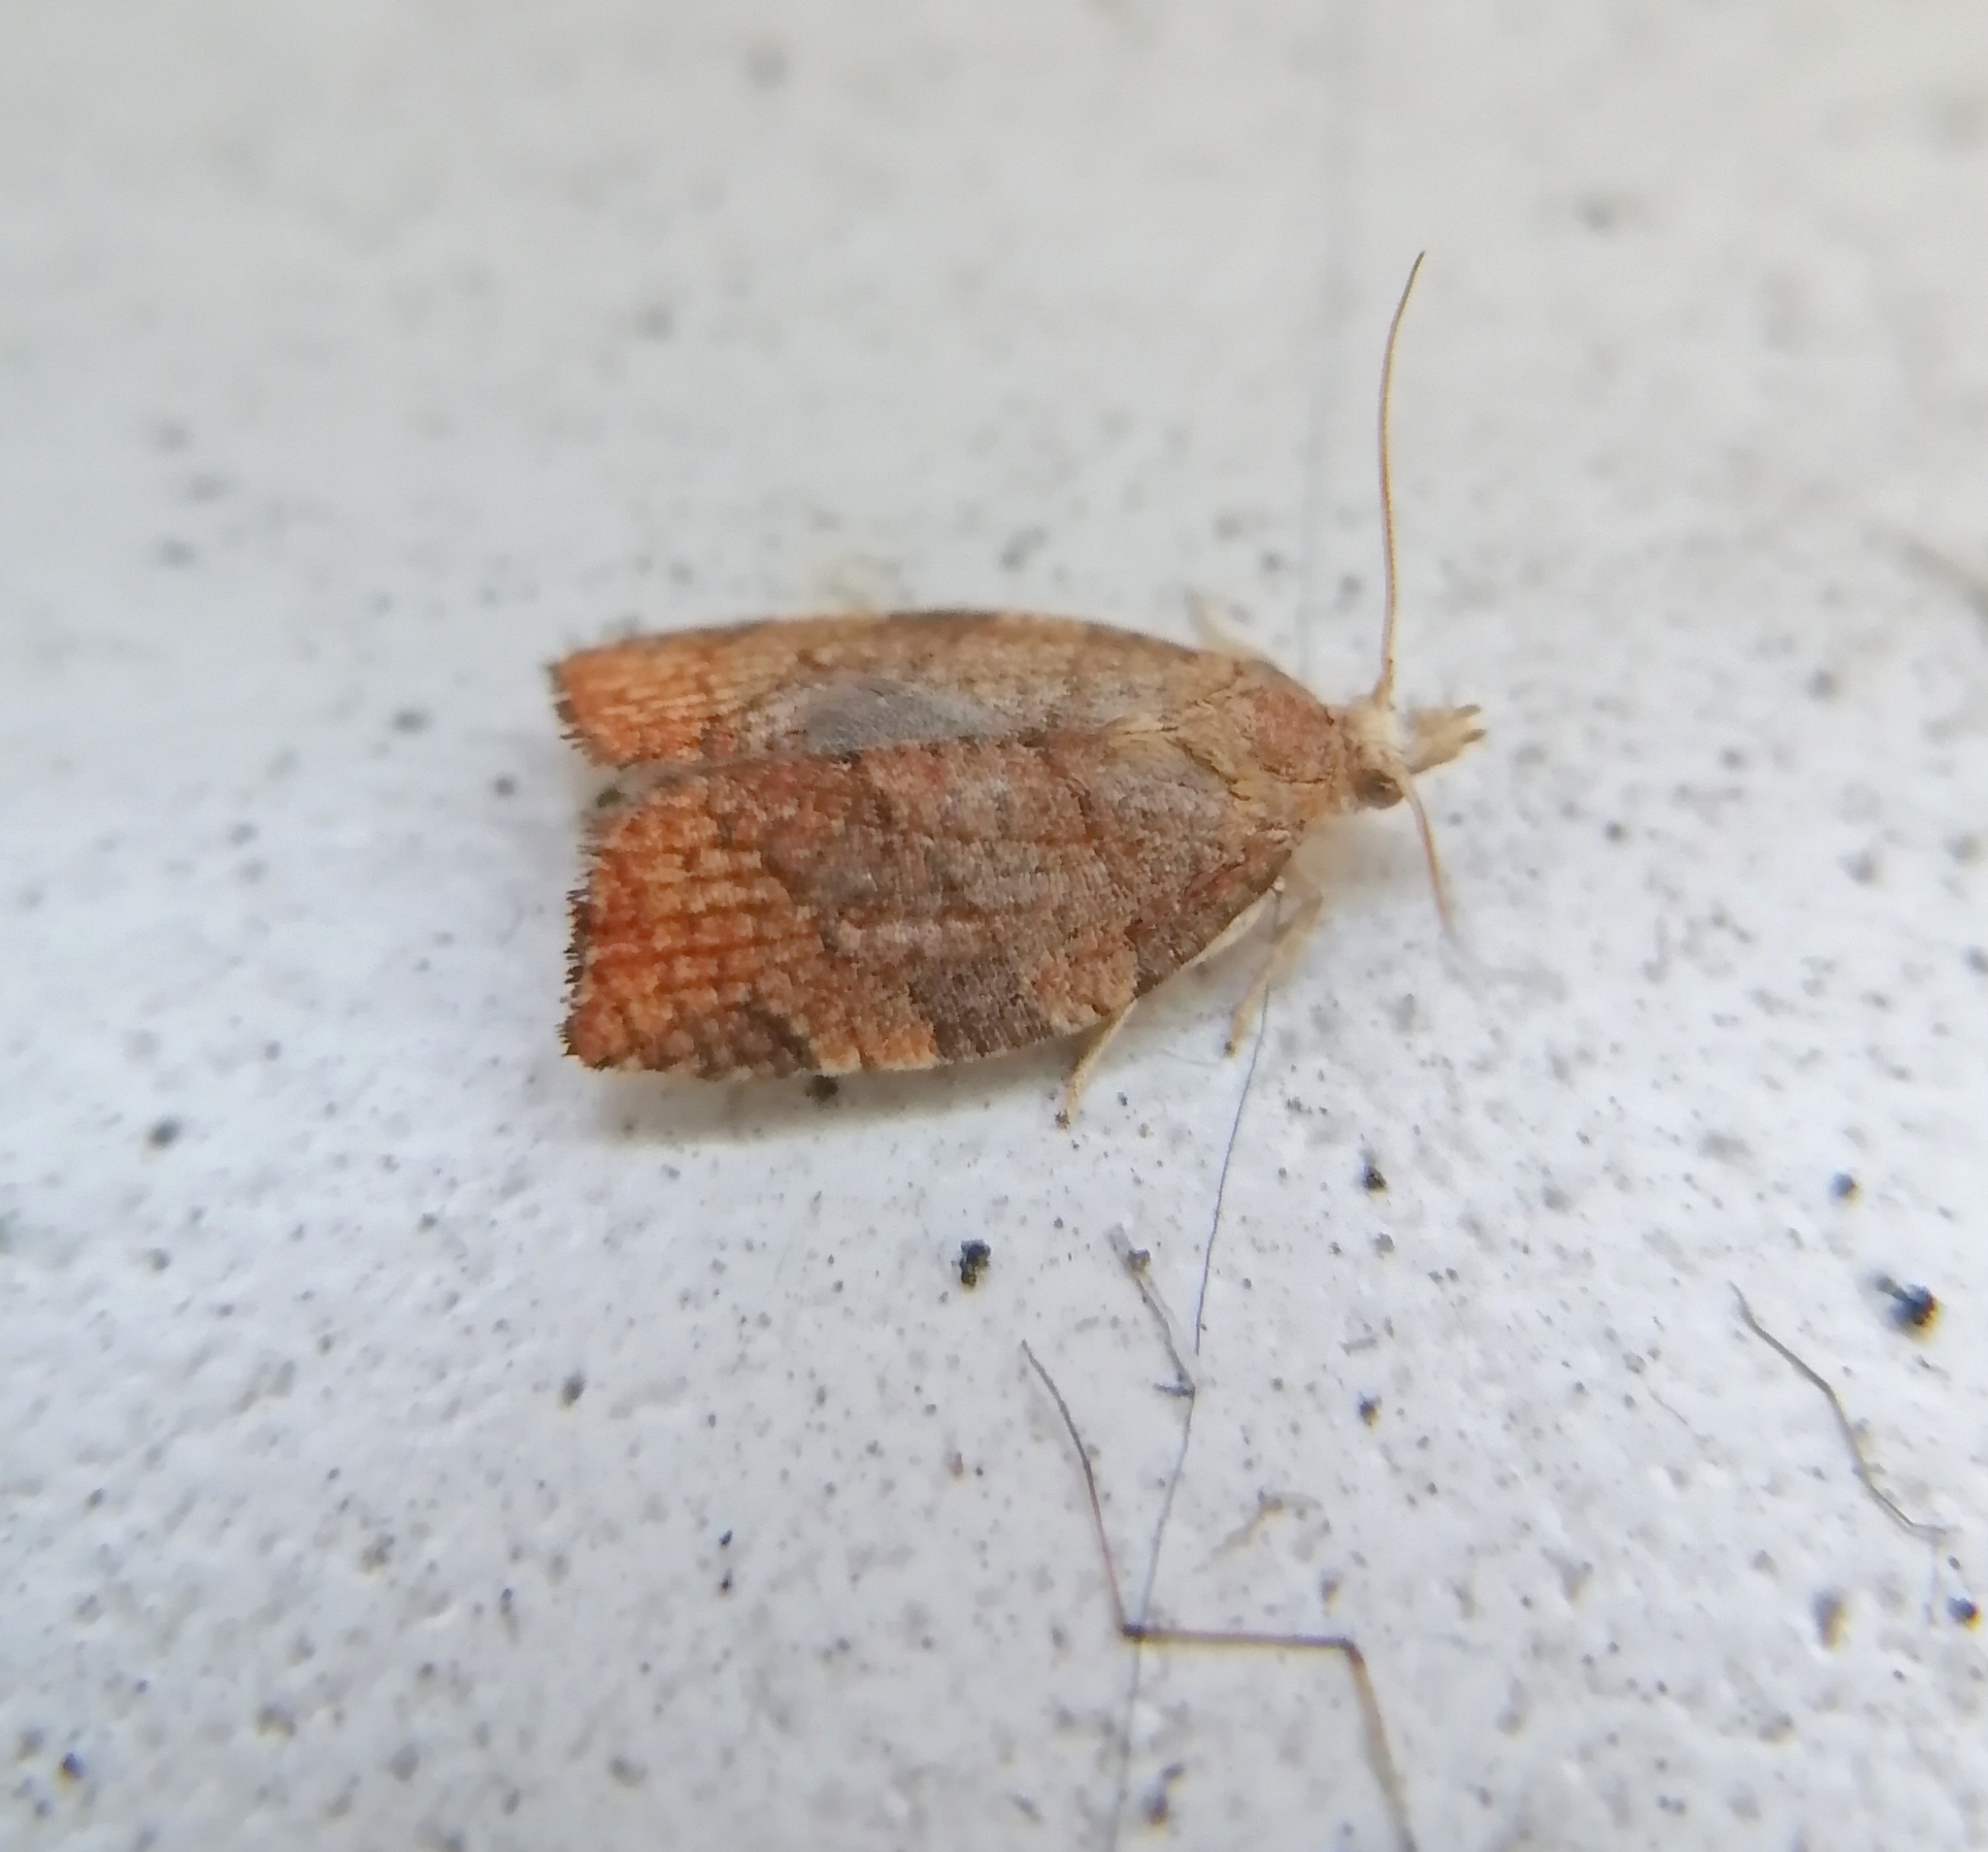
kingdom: Animalia
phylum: Arthropoda
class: Insecta
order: Lepidoptera
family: Tortricidae
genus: Pandemis
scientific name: Pandemis corylana
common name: Chequered fruit-tree tortrix
